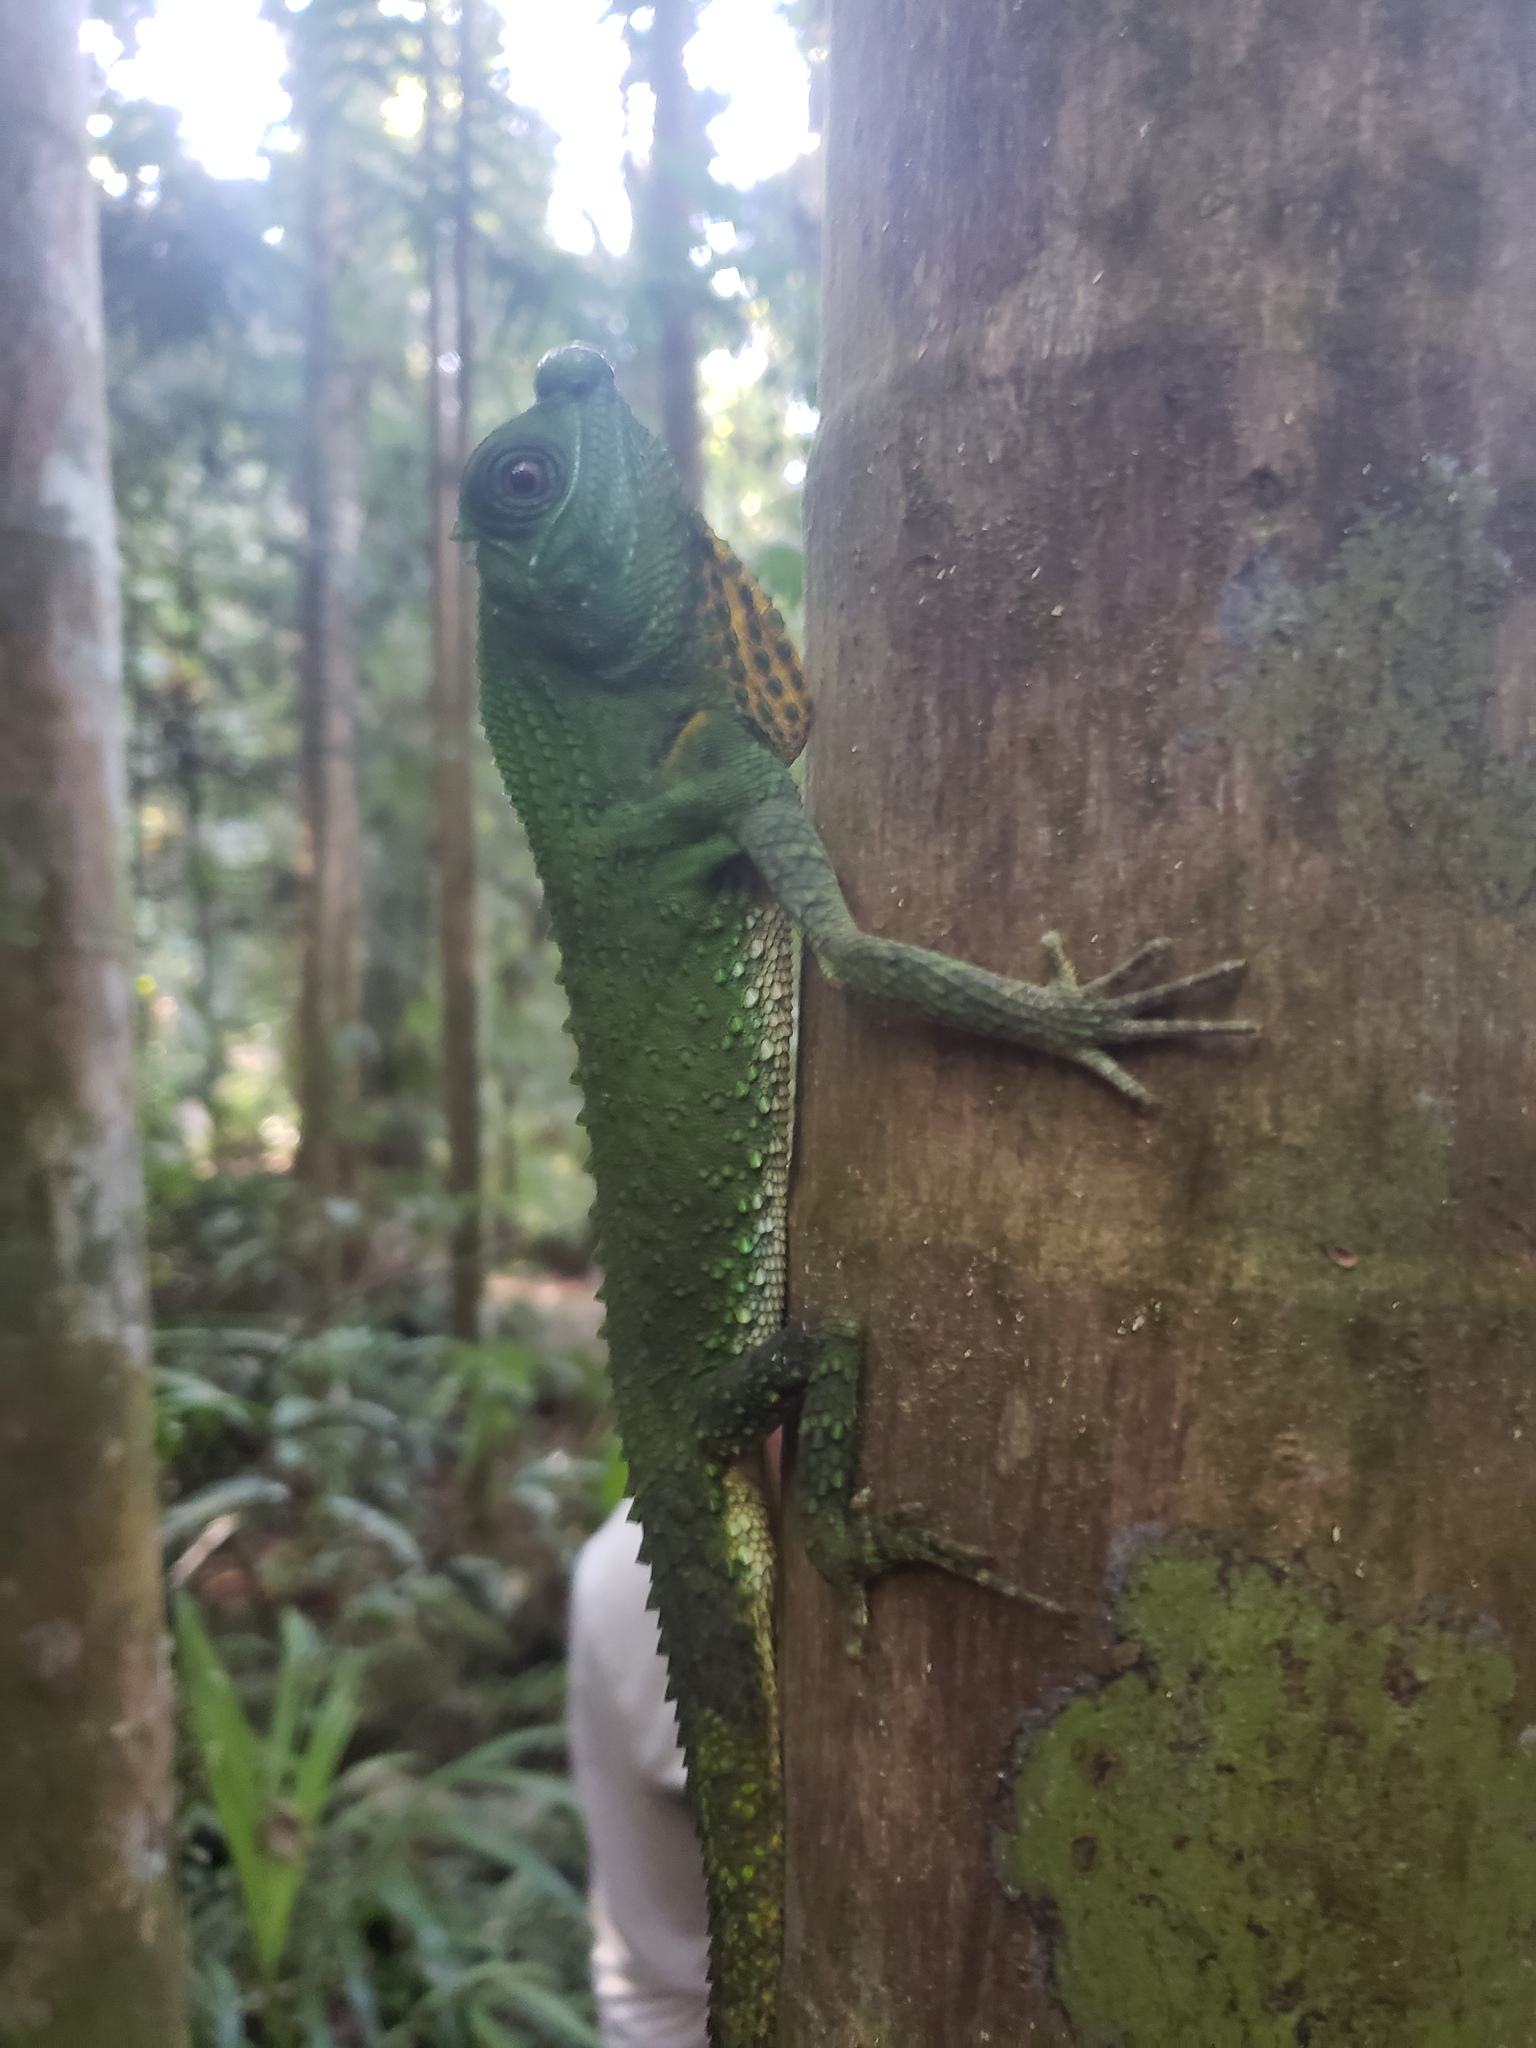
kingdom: Animalia
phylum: Chordata
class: Squamata
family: Agamidae
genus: Lyriocephalus
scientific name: Lyriocephalus scutatus
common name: Hump snout lizard
